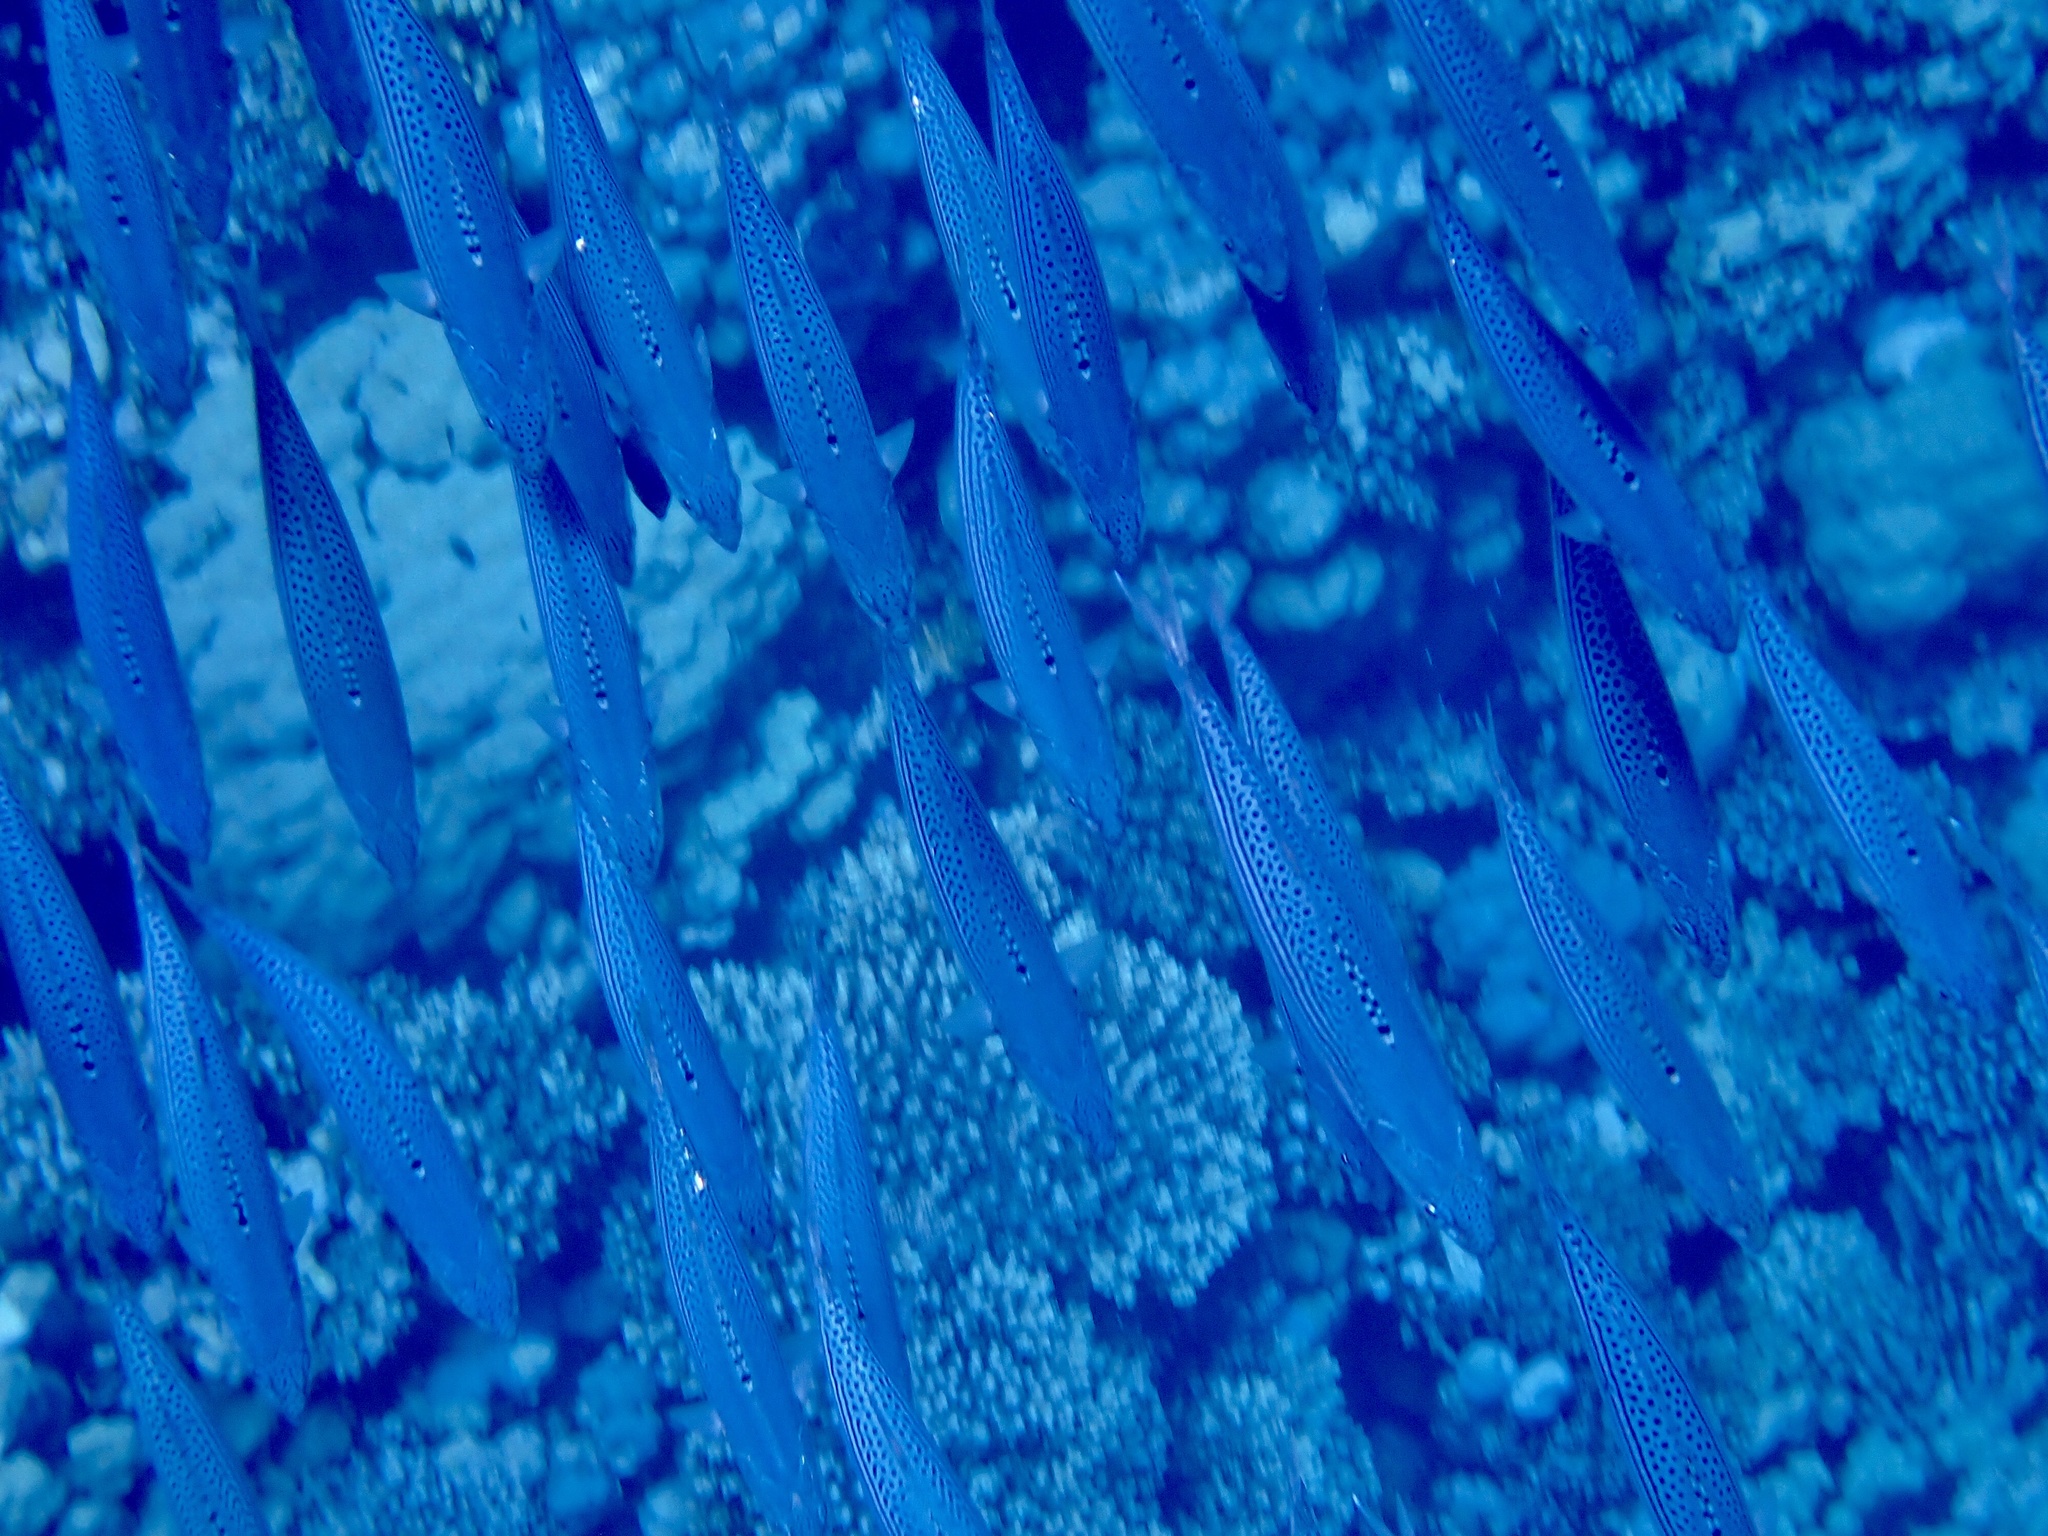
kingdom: Animalia
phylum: Chordata
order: Perciformes
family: Scombridae
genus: Rastrelliger
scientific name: Rastrelliger kanagurta
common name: Indian mackerel
